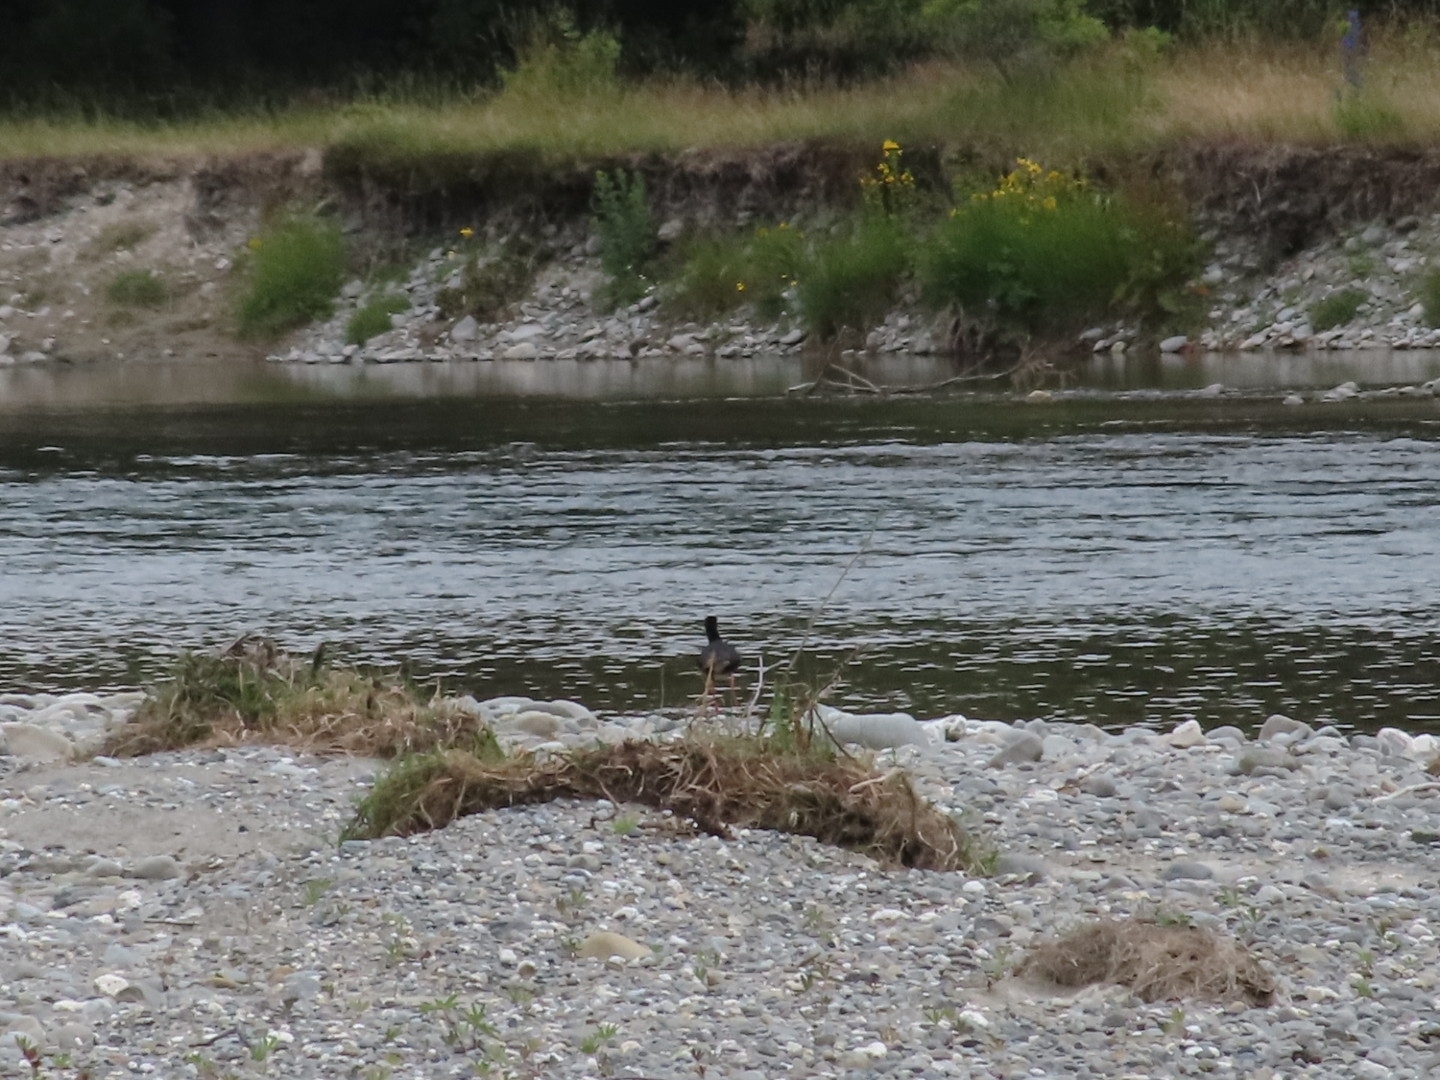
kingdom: Animalia
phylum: Chordata
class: Aves
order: Charadriiformes
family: Recurvirostridae
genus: Himantopus
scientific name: Himantopus
